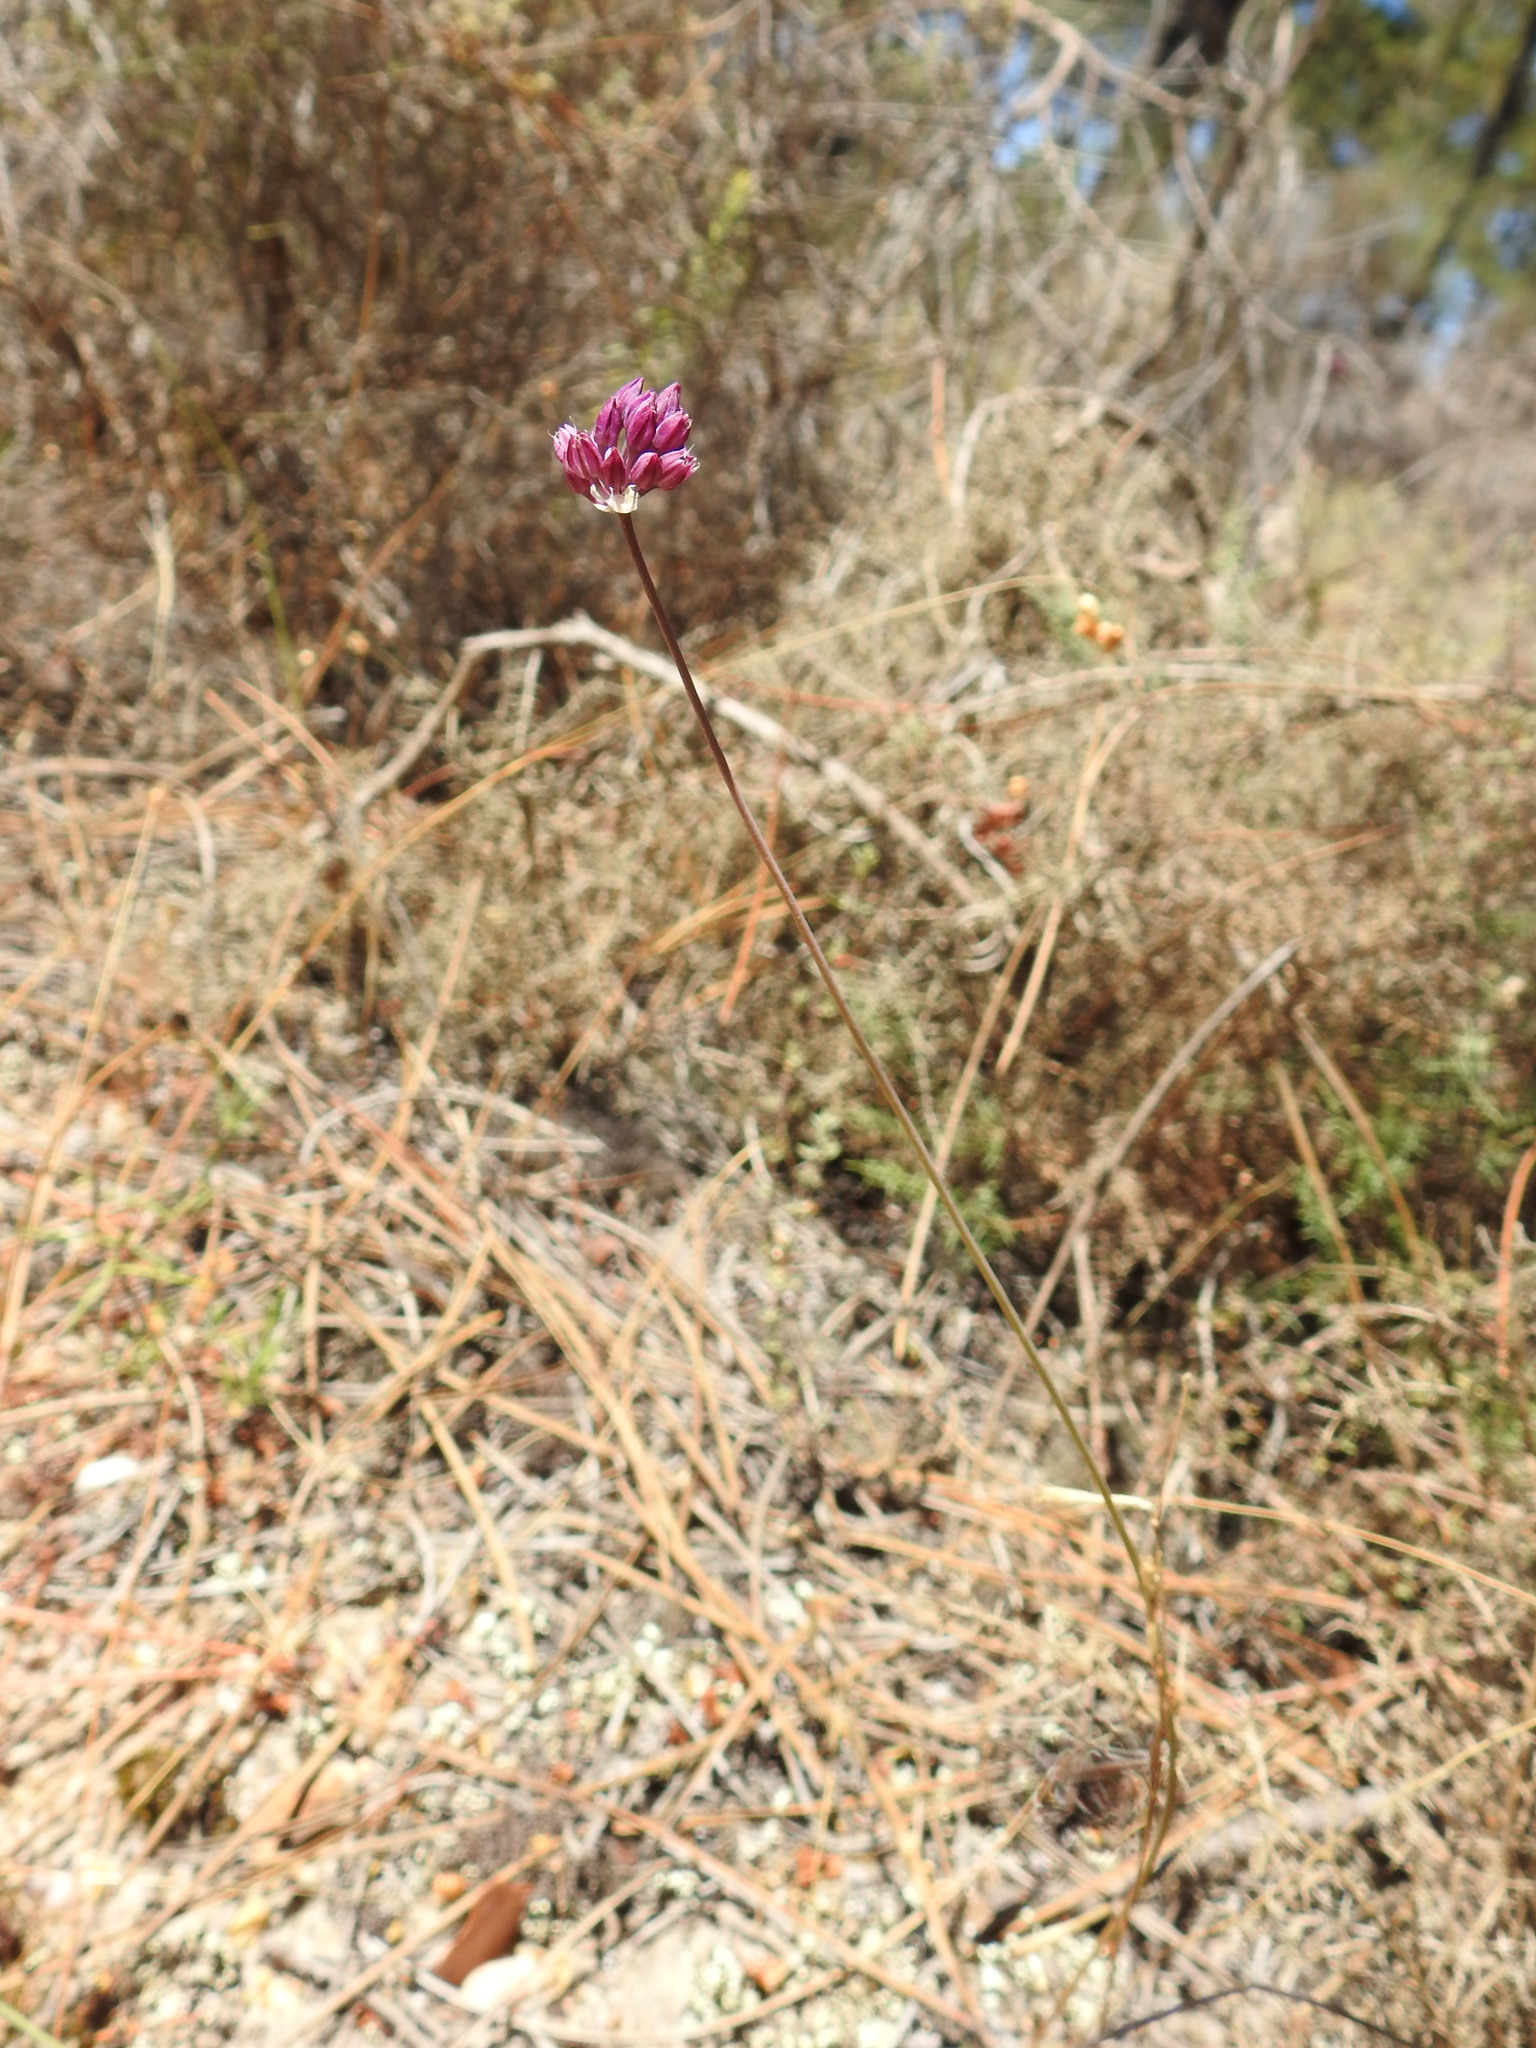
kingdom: Plantae
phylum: Tracheophyta
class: Liliopsida
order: Asparagales
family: Amaryllidaceae
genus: Allium
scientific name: Allium pruinatum
